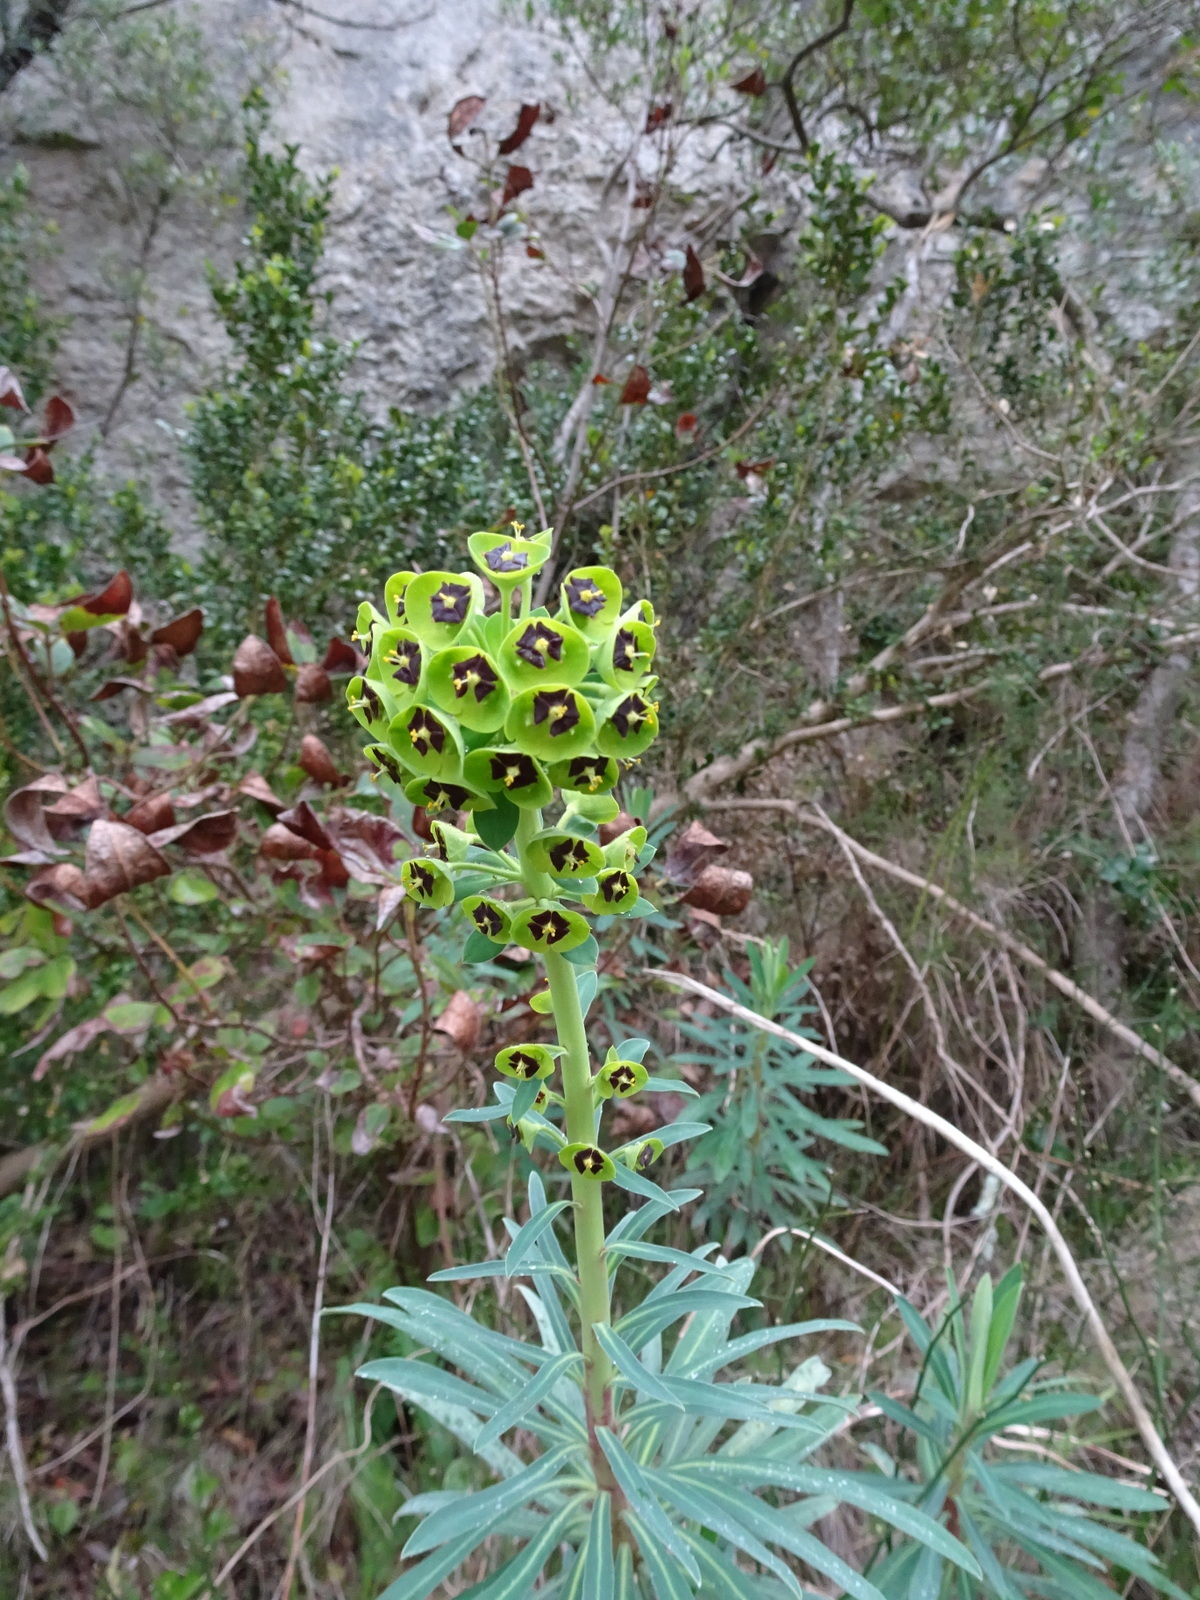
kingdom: Plantae
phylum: Tracheophyta
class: Magnoliopsida
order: Malpighiales
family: Euphorbiaceae
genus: Euphorbia
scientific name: Euphorbia characias
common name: Mediterranean spurge
